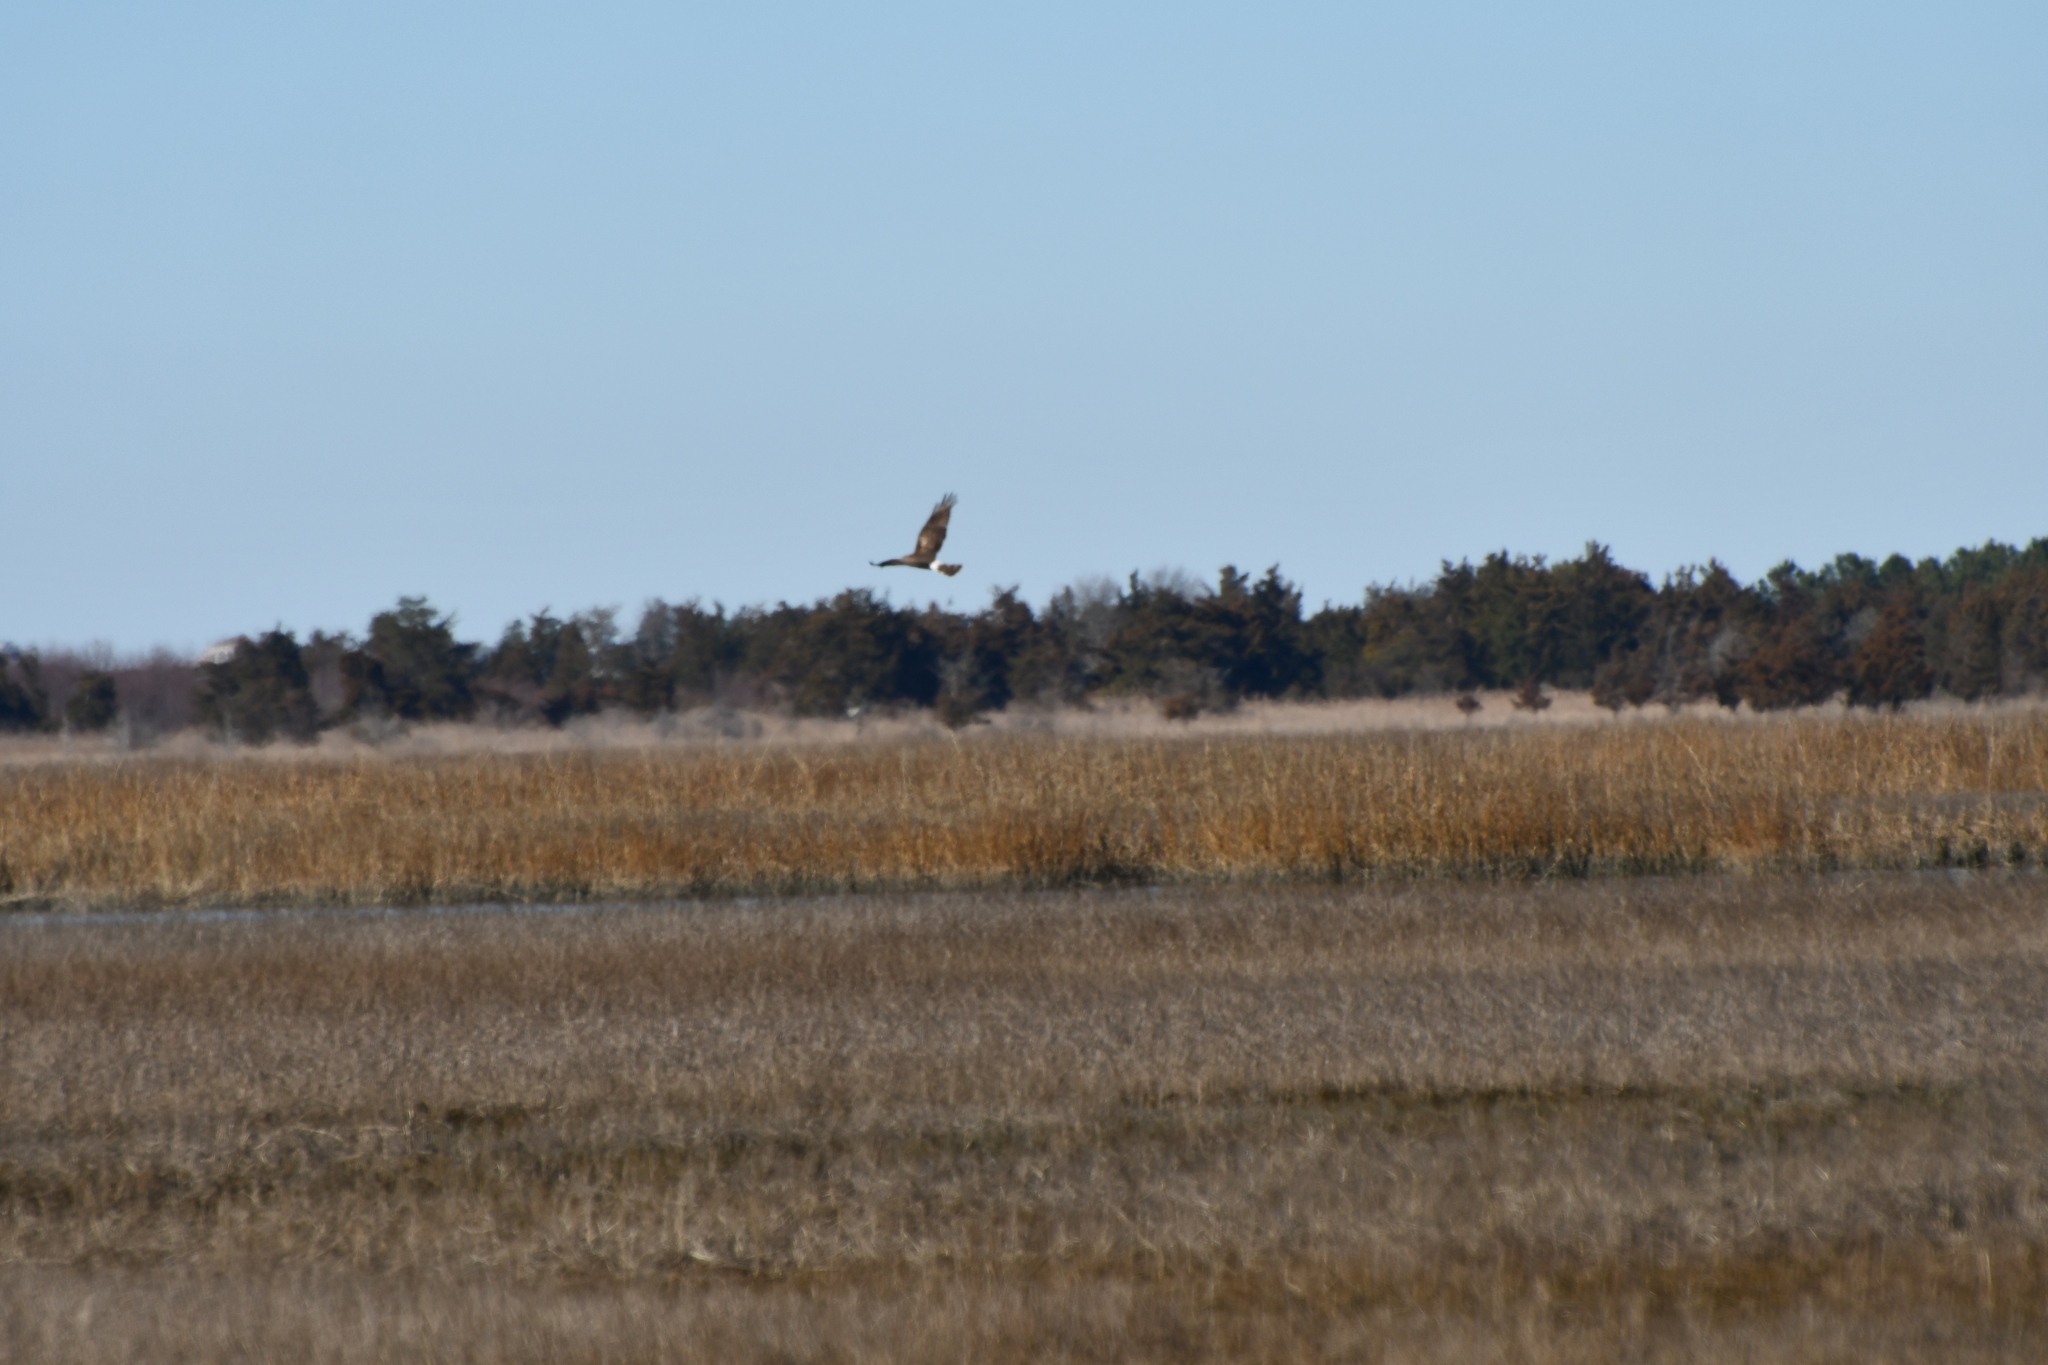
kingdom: Animalia
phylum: Chordata
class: Aves
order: Accipitriformes
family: Accipitridae
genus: Circus
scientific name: Circus cyaneus
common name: Hen harrier
